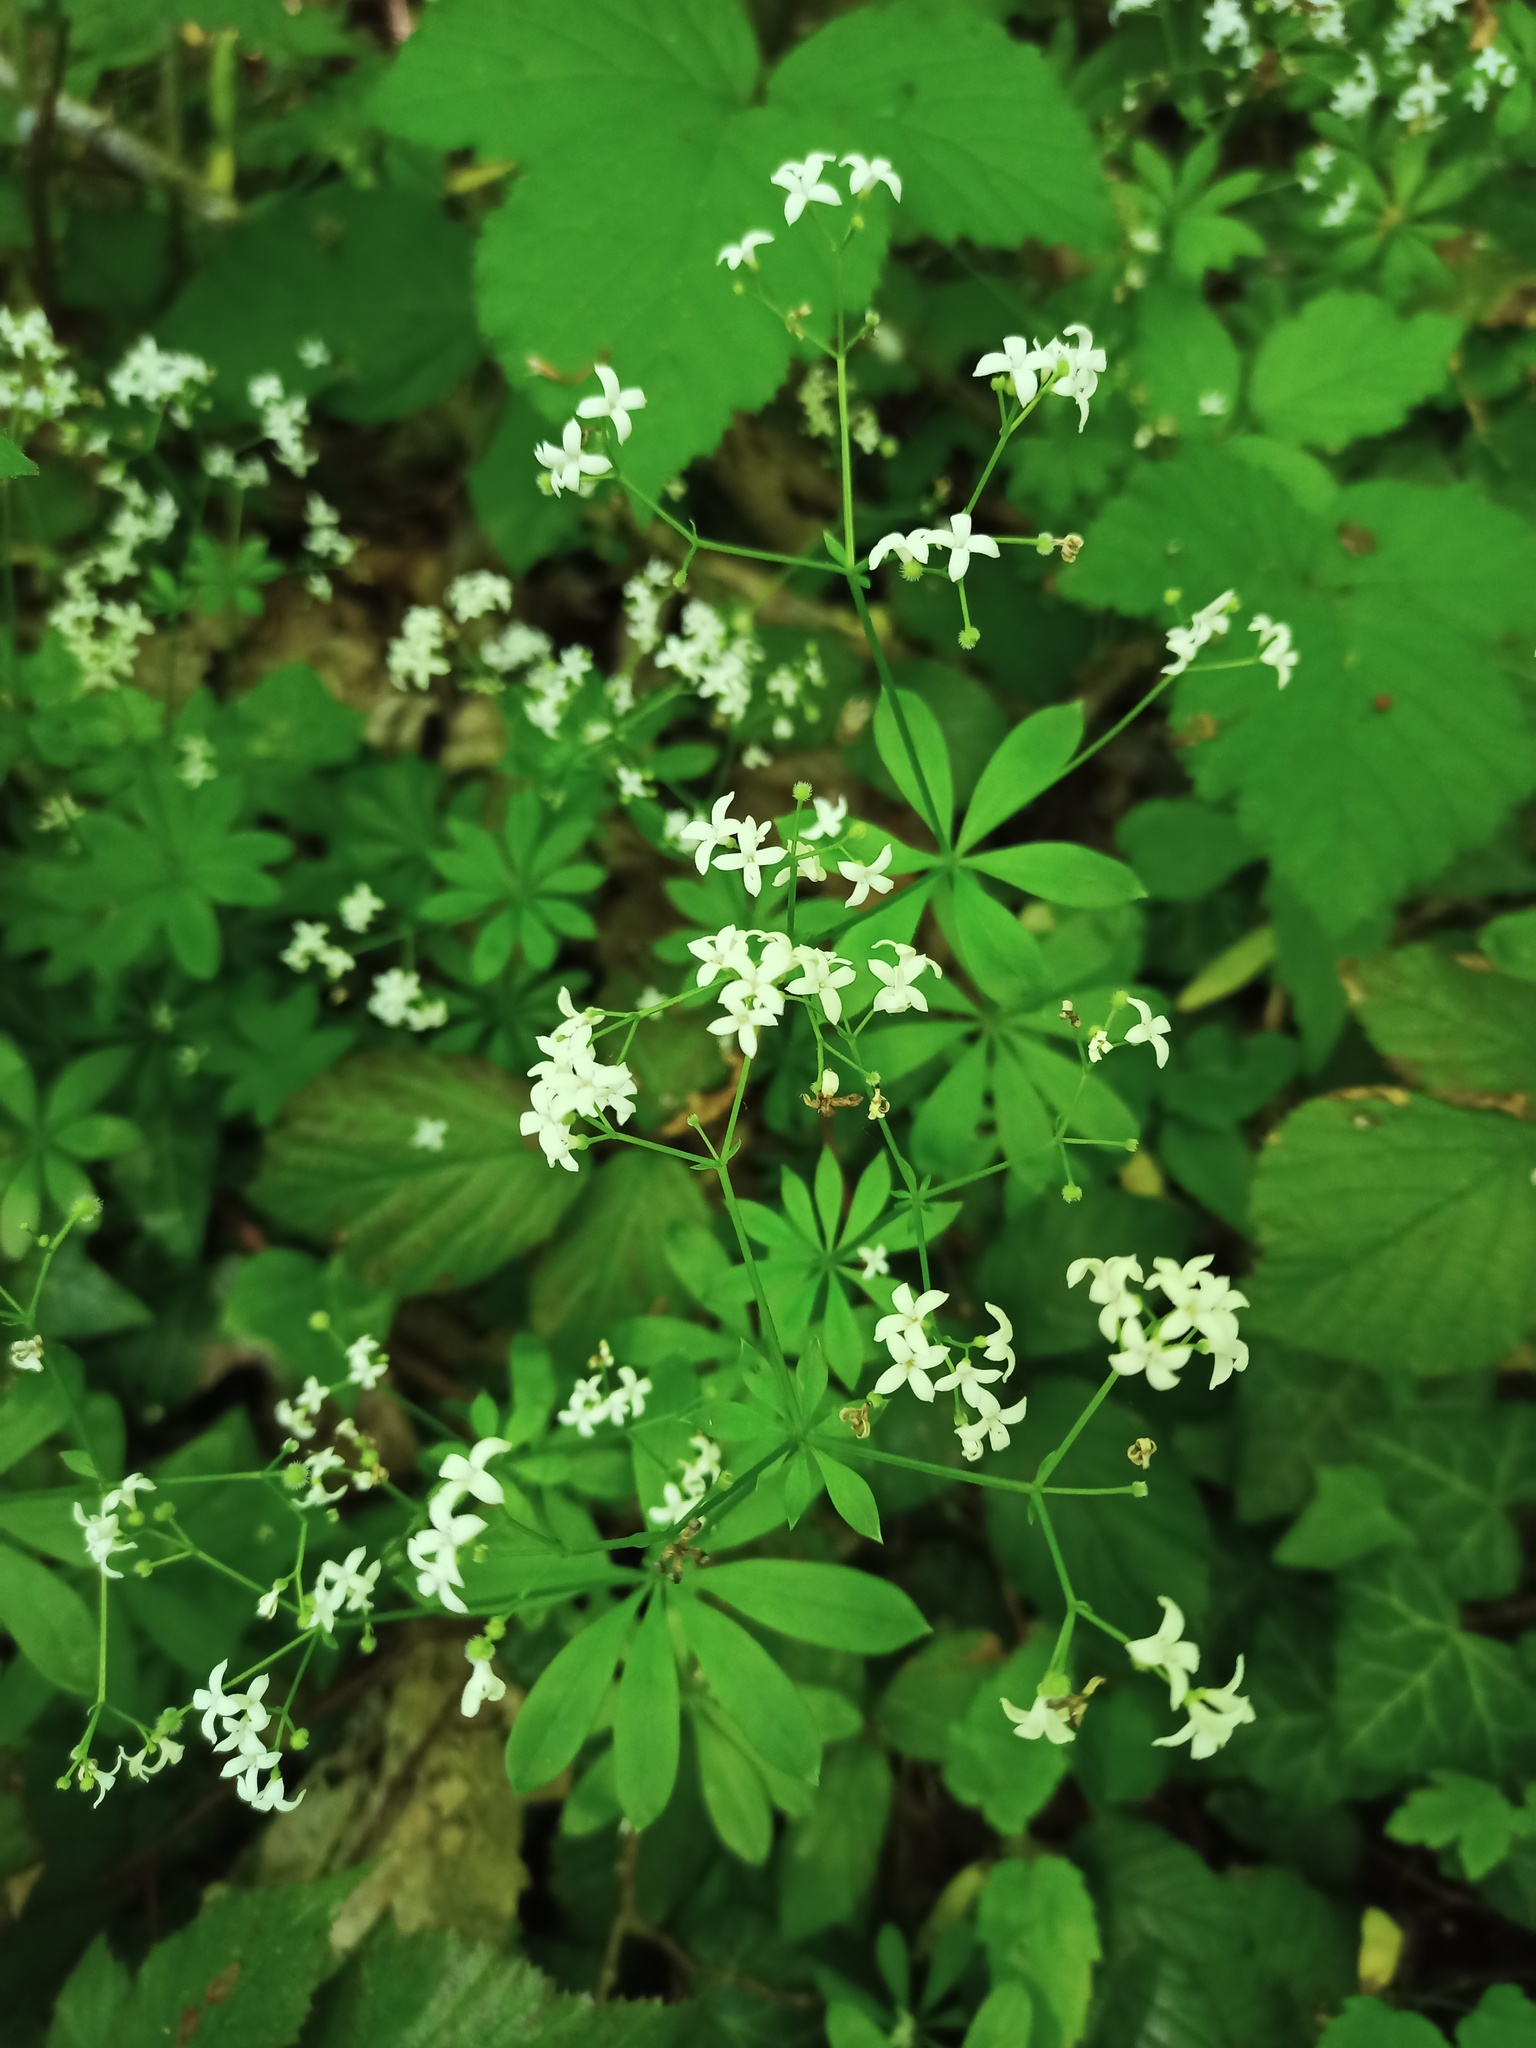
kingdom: Plantae
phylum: Tracheophyta
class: Magnoliopsida
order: Gentianales
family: Rubiaceae
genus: Galium
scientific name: Galium odoratum
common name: Sweet woodruff
